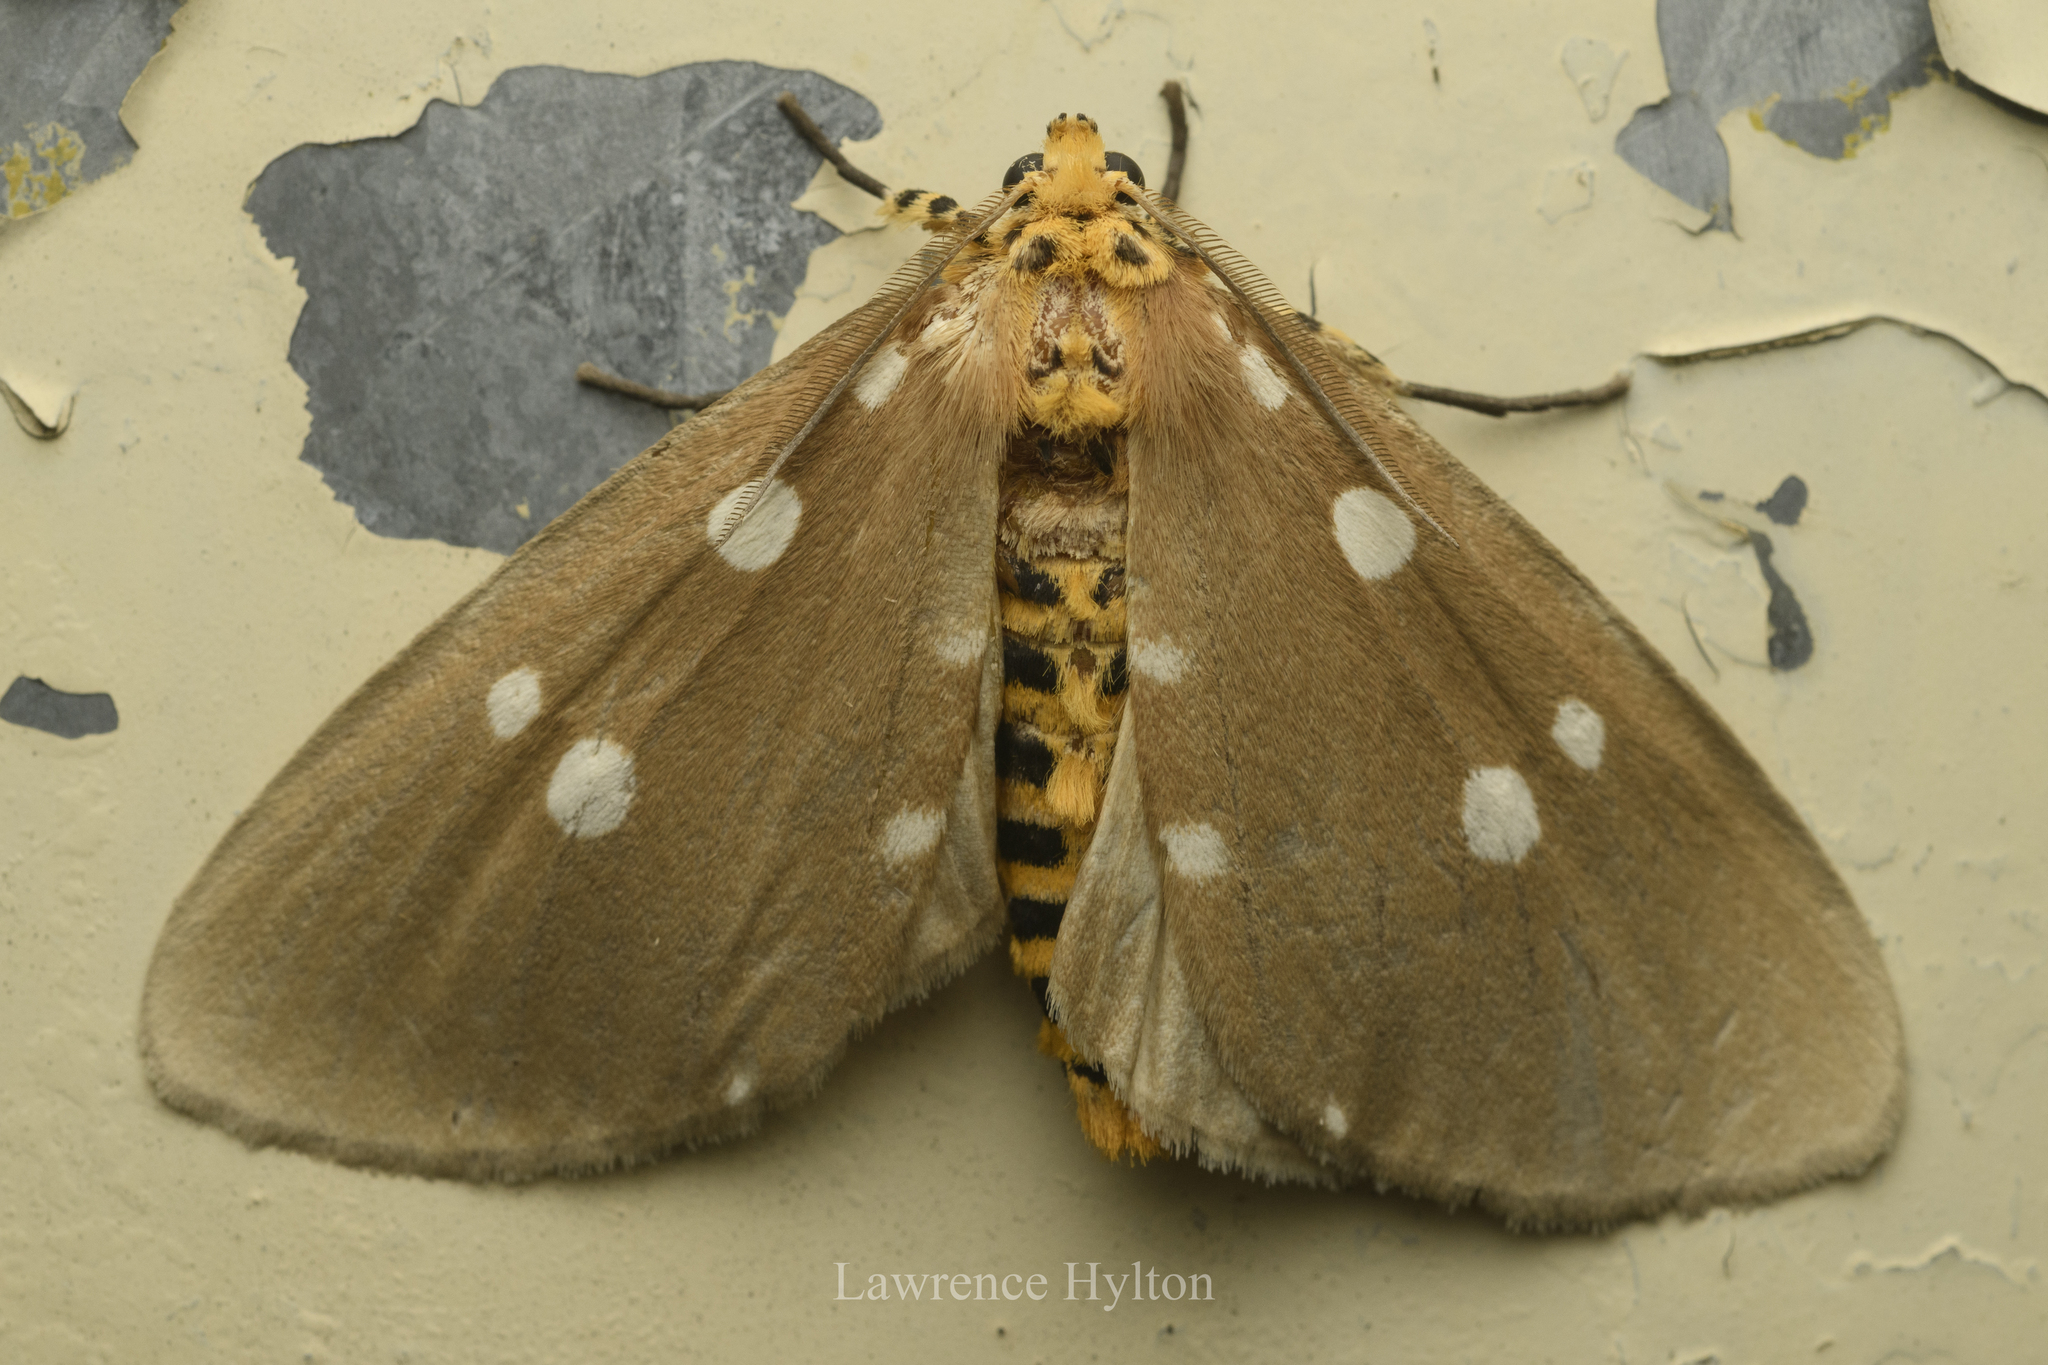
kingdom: Animalia
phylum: Arthropoda
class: Insecta
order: Lepidoptera
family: Erebidae
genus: Tinolius
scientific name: Tinolius hypsana
